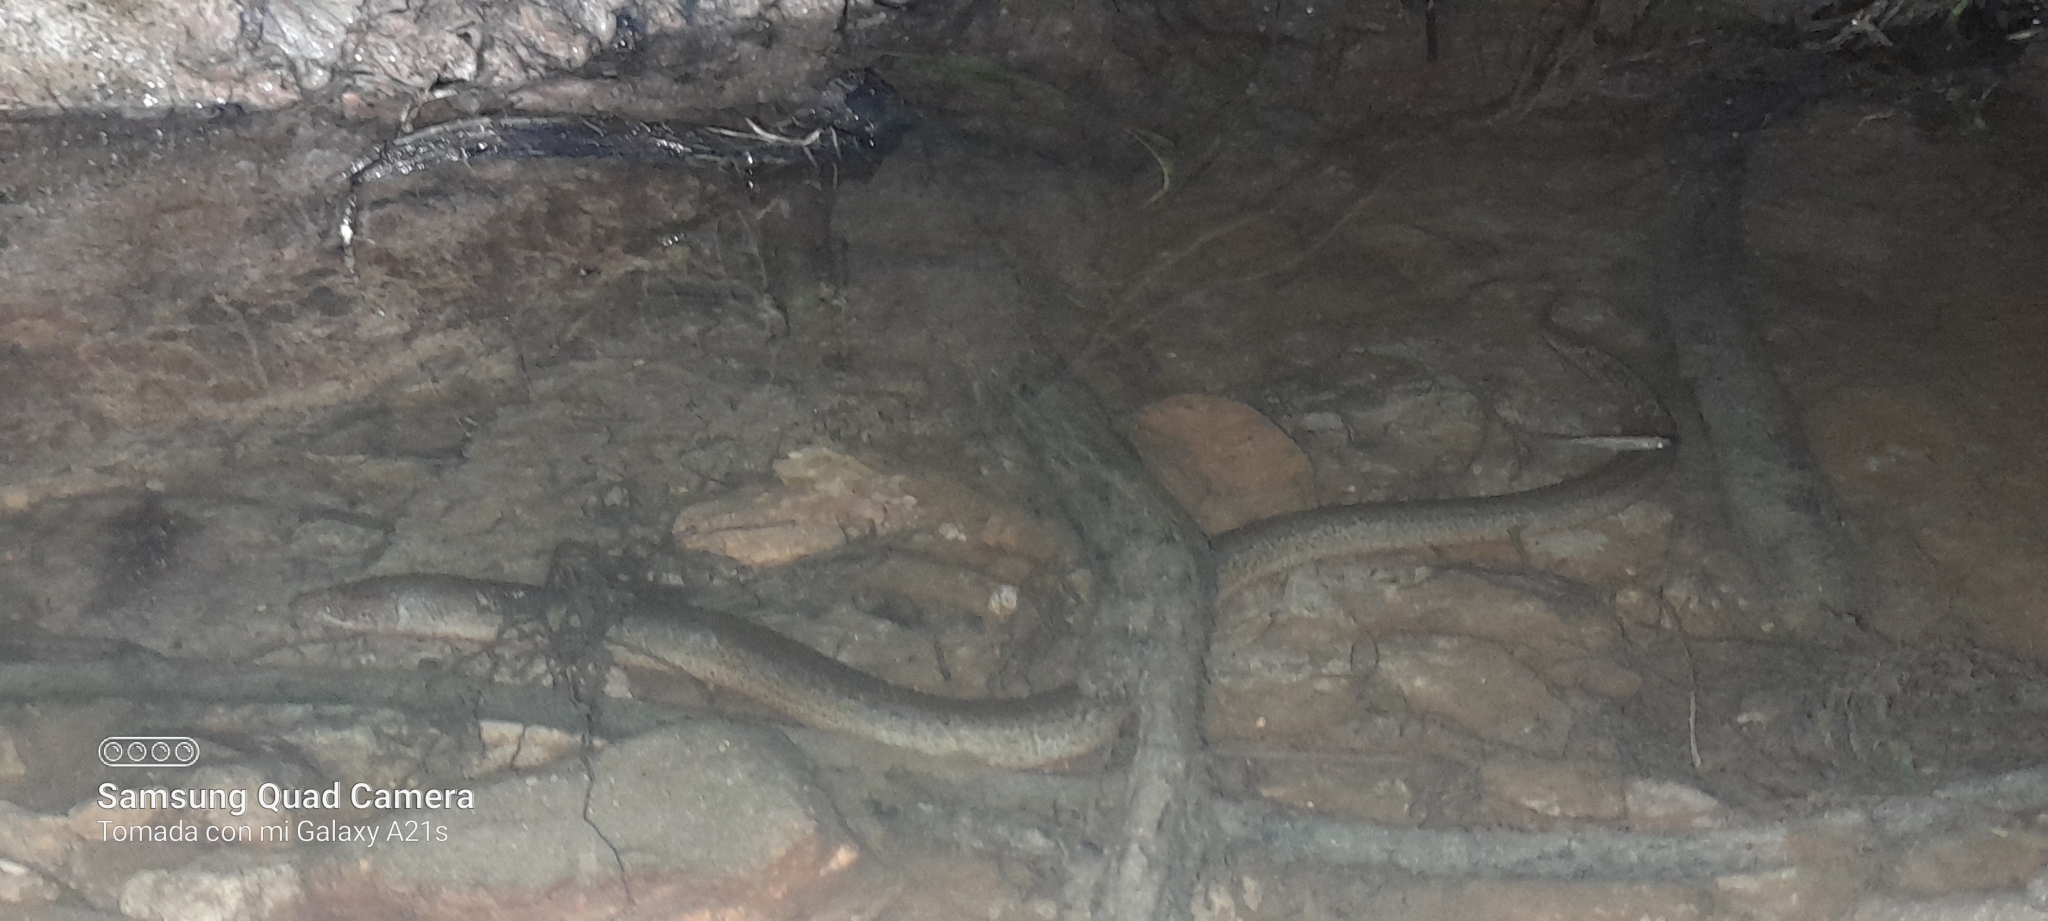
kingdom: Animalia
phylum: Chordata
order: Synbranchiformes
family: Synbranchidae
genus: Synbranchus
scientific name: Synbranchus marmoratus
